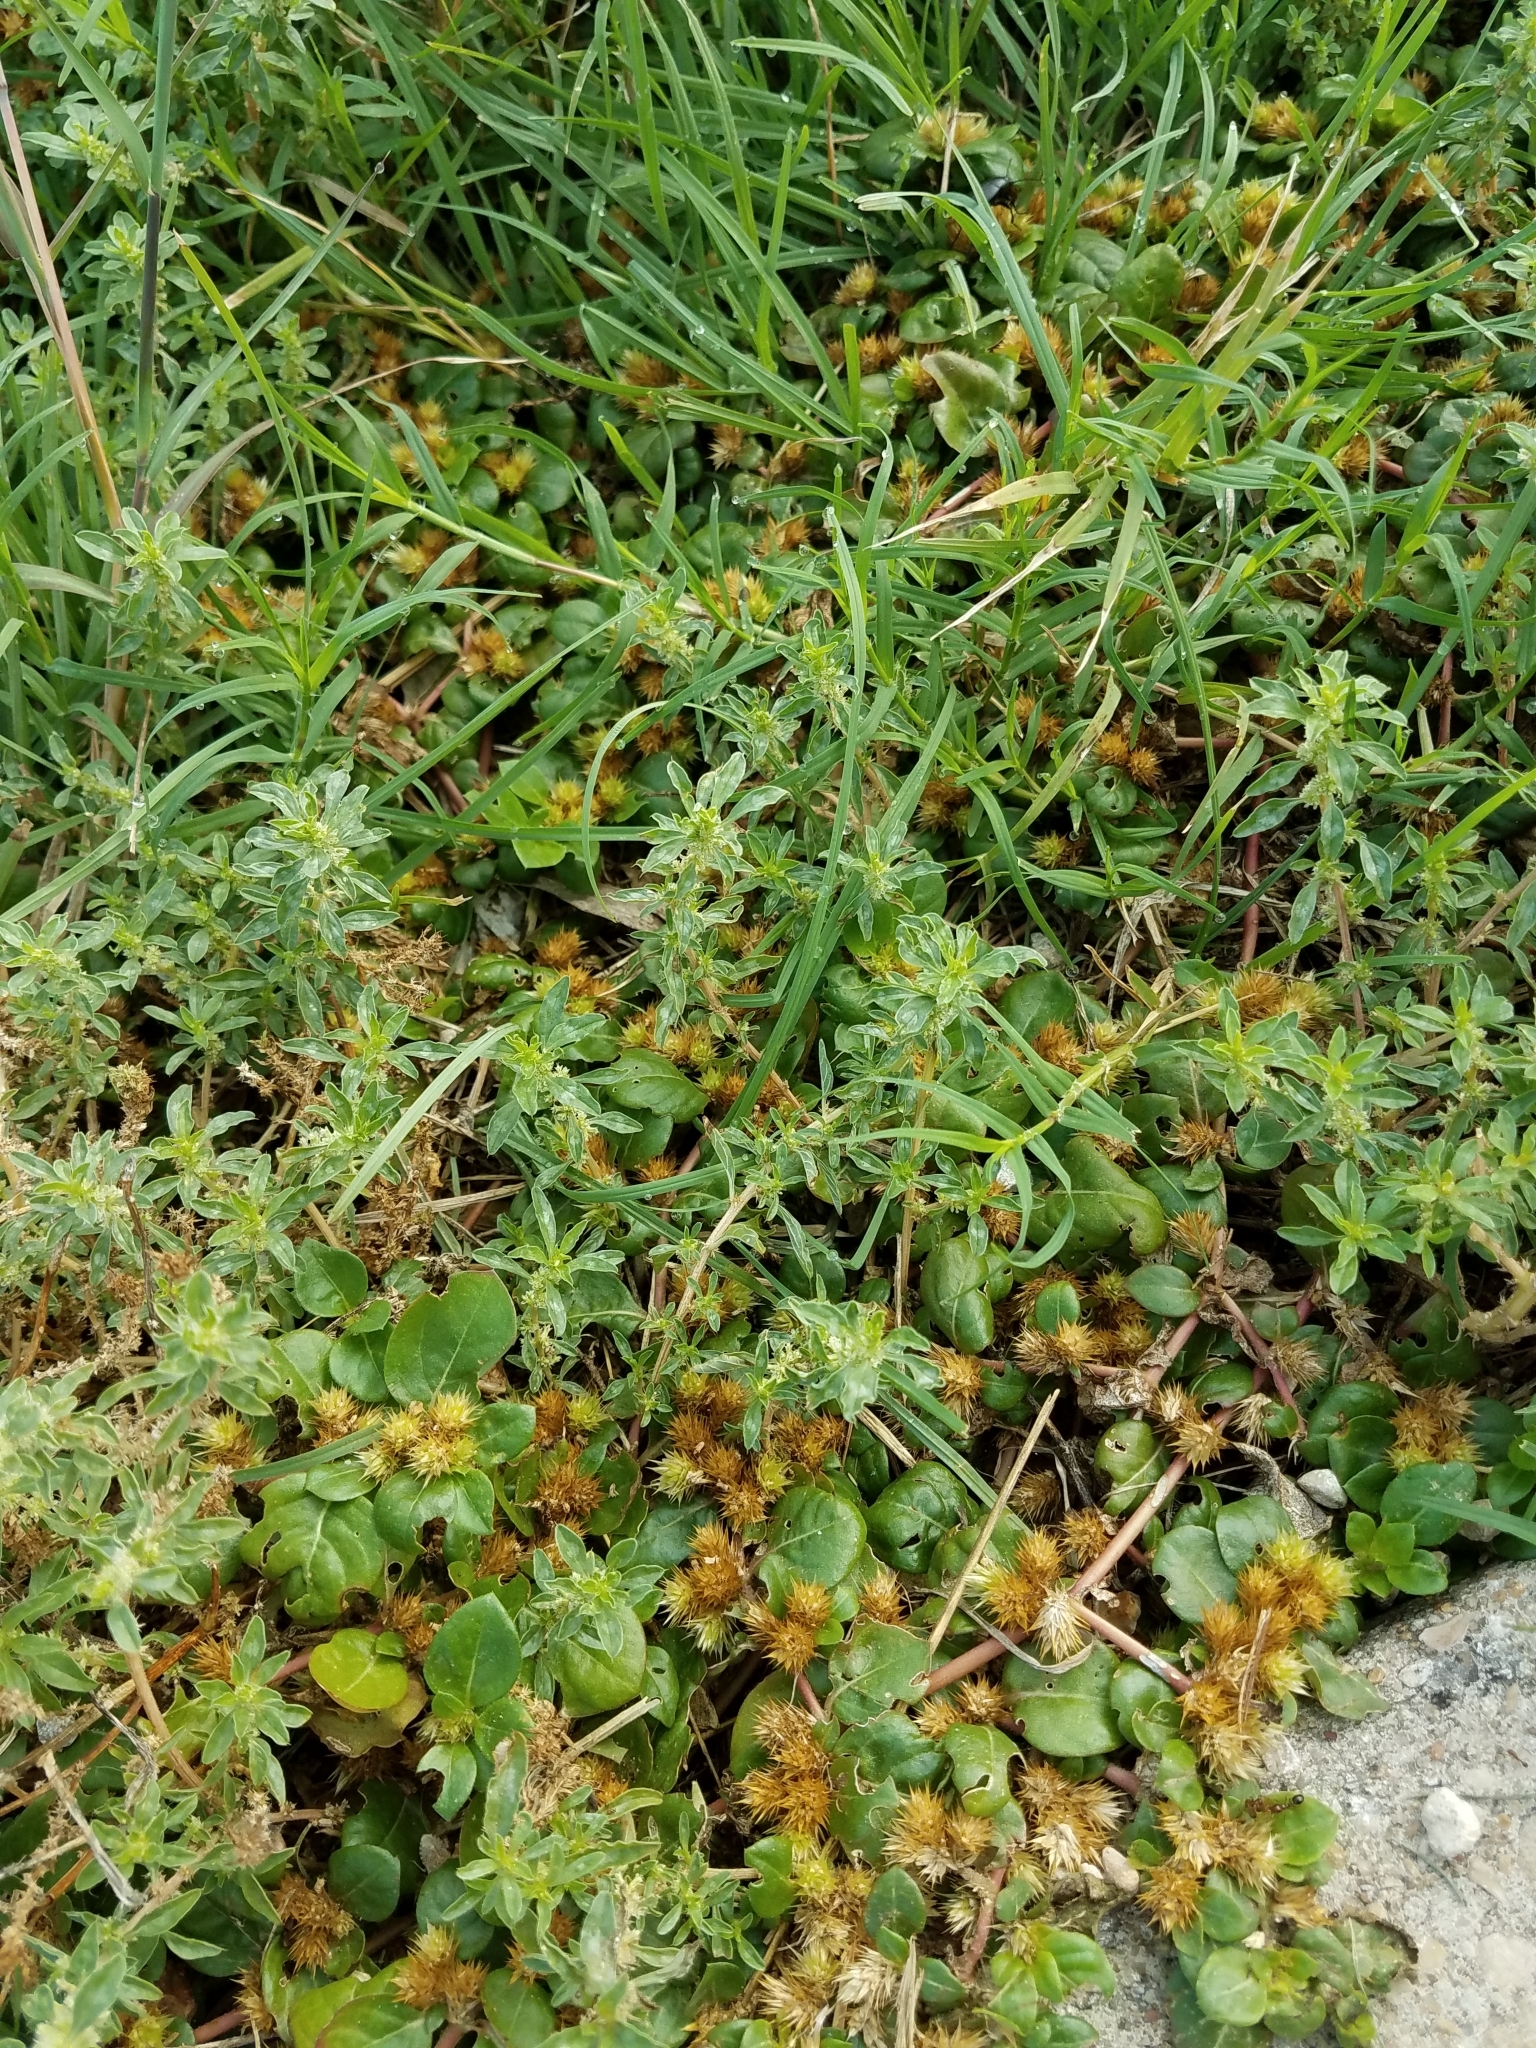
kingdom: Plantae
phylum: Tracheophyta
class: Magnoliopsida
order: Caryophyllales
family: Amaranthaceae
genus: Alternanthera
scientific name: Alternanthera pungens
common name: Khakiweed
